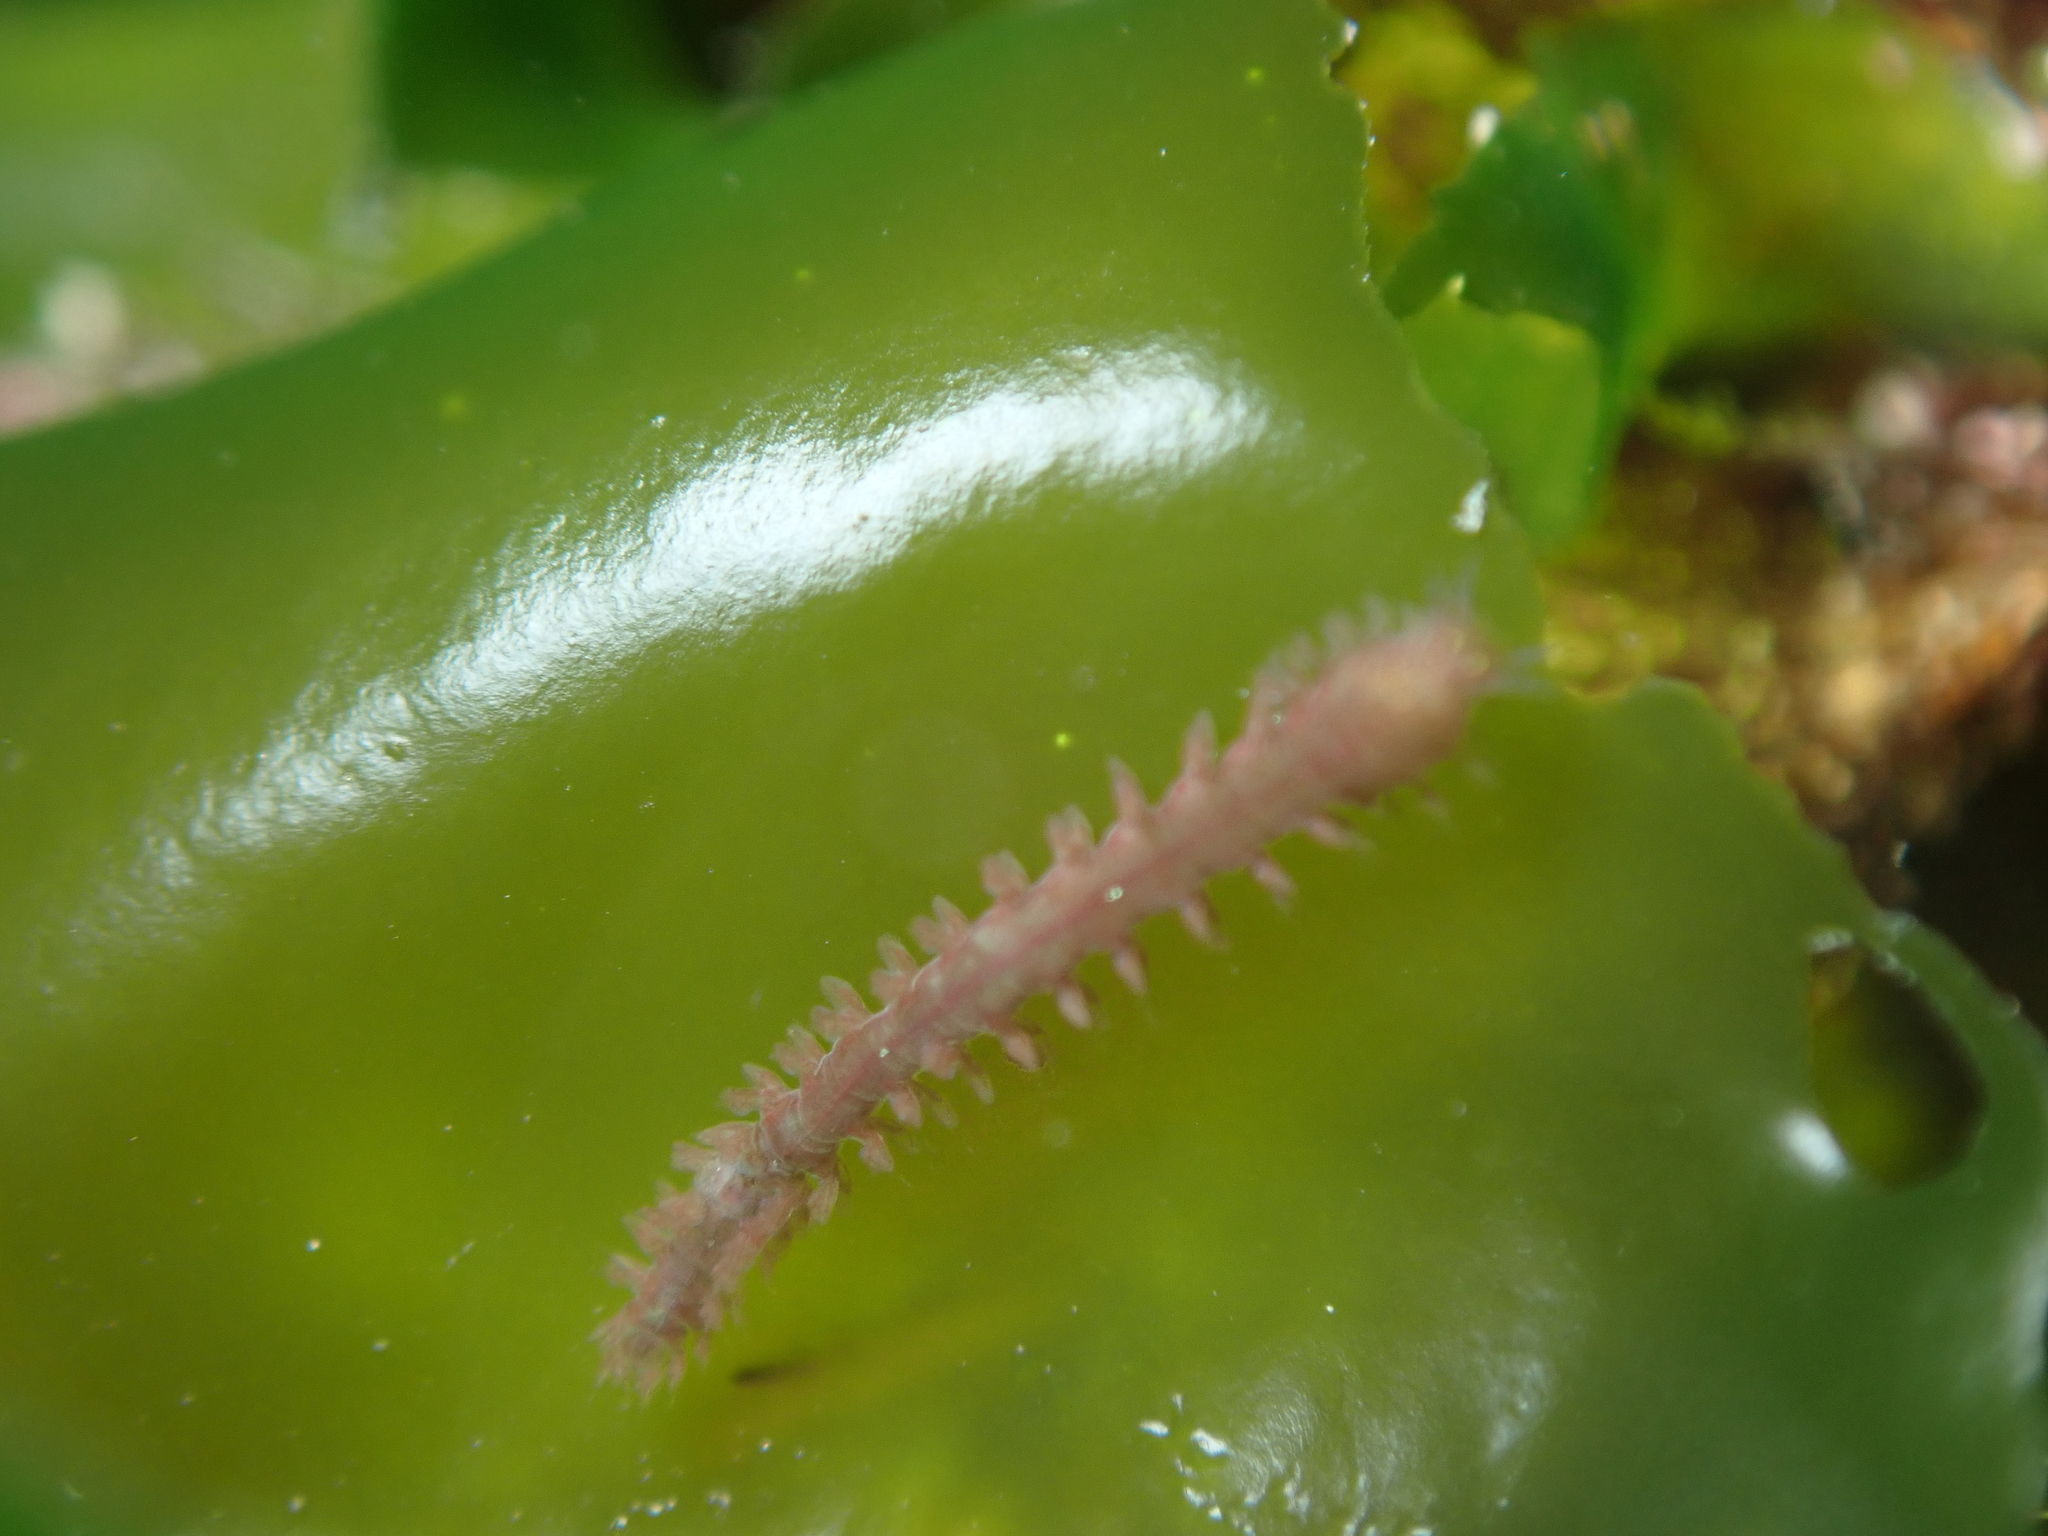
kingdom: Animalia
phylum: Annelida
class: Polychaeta
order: Phyllodocida
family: Nereididae
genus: Micronereis
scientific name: Micronereis minuta
